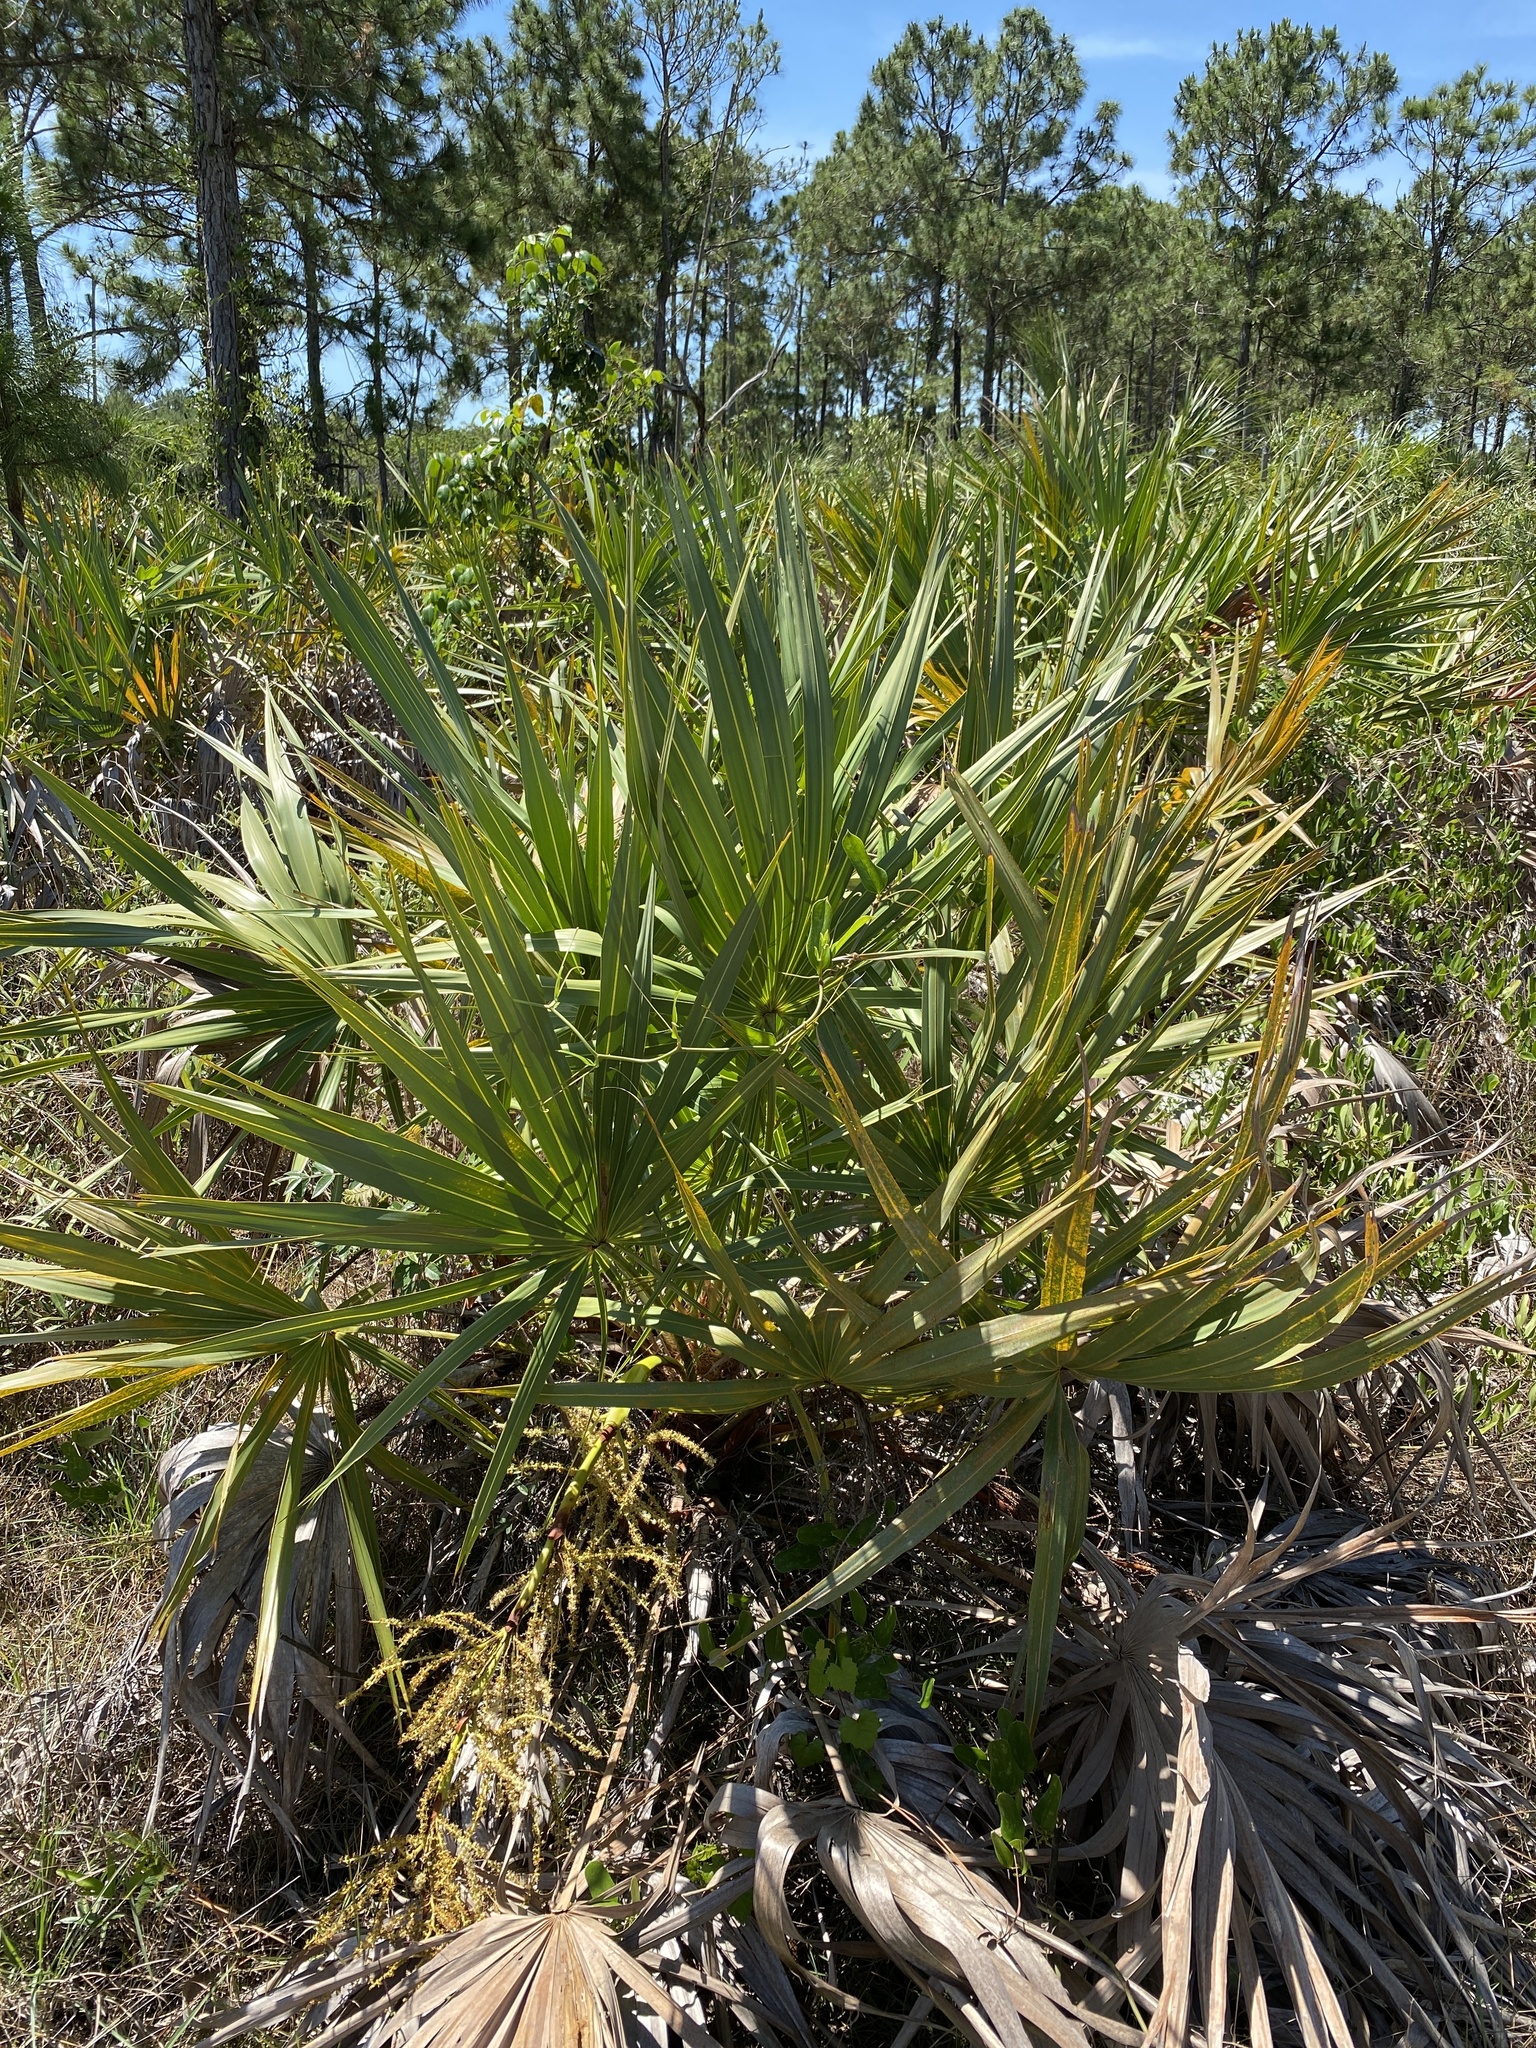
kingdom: Plantae
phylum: Tracheophyta
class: Liliopsida
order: Arecales
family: Arecaceae
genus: Serenoa
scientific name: Serenoa repens
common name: Saw-palmetto
